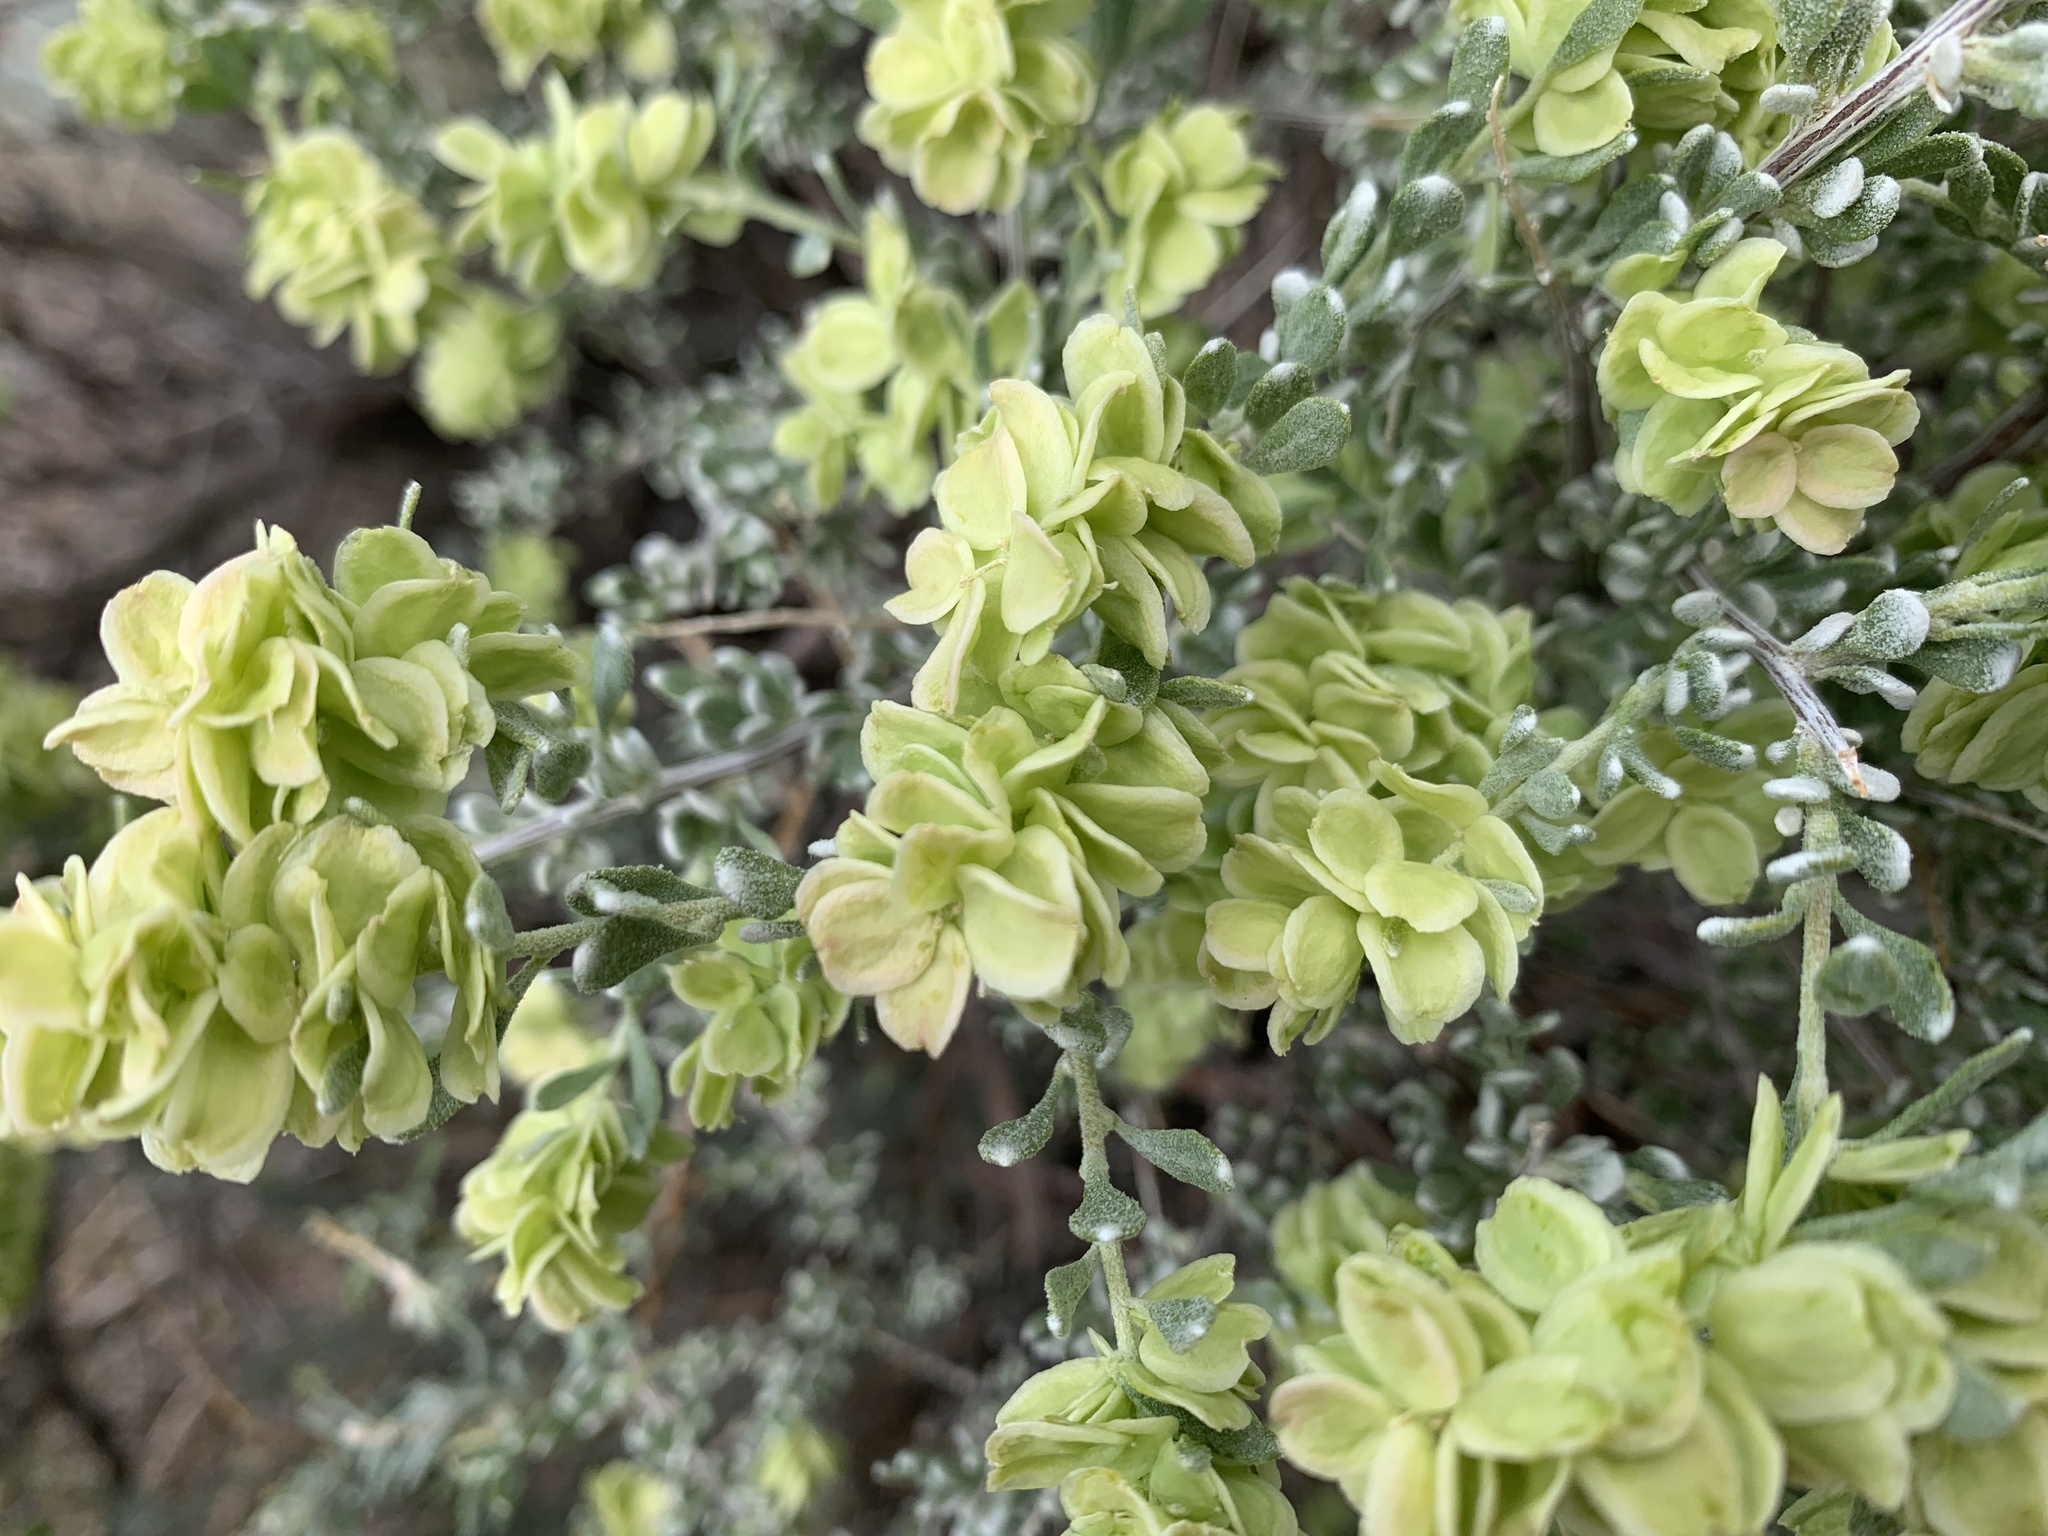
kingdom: Plantae
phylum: Tracheophyta
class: Magnoliopsida
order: Caryophyllales
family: Amaranthaceae
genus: Grayia
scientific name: Grayia spinosa
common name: Spiny hopsage
